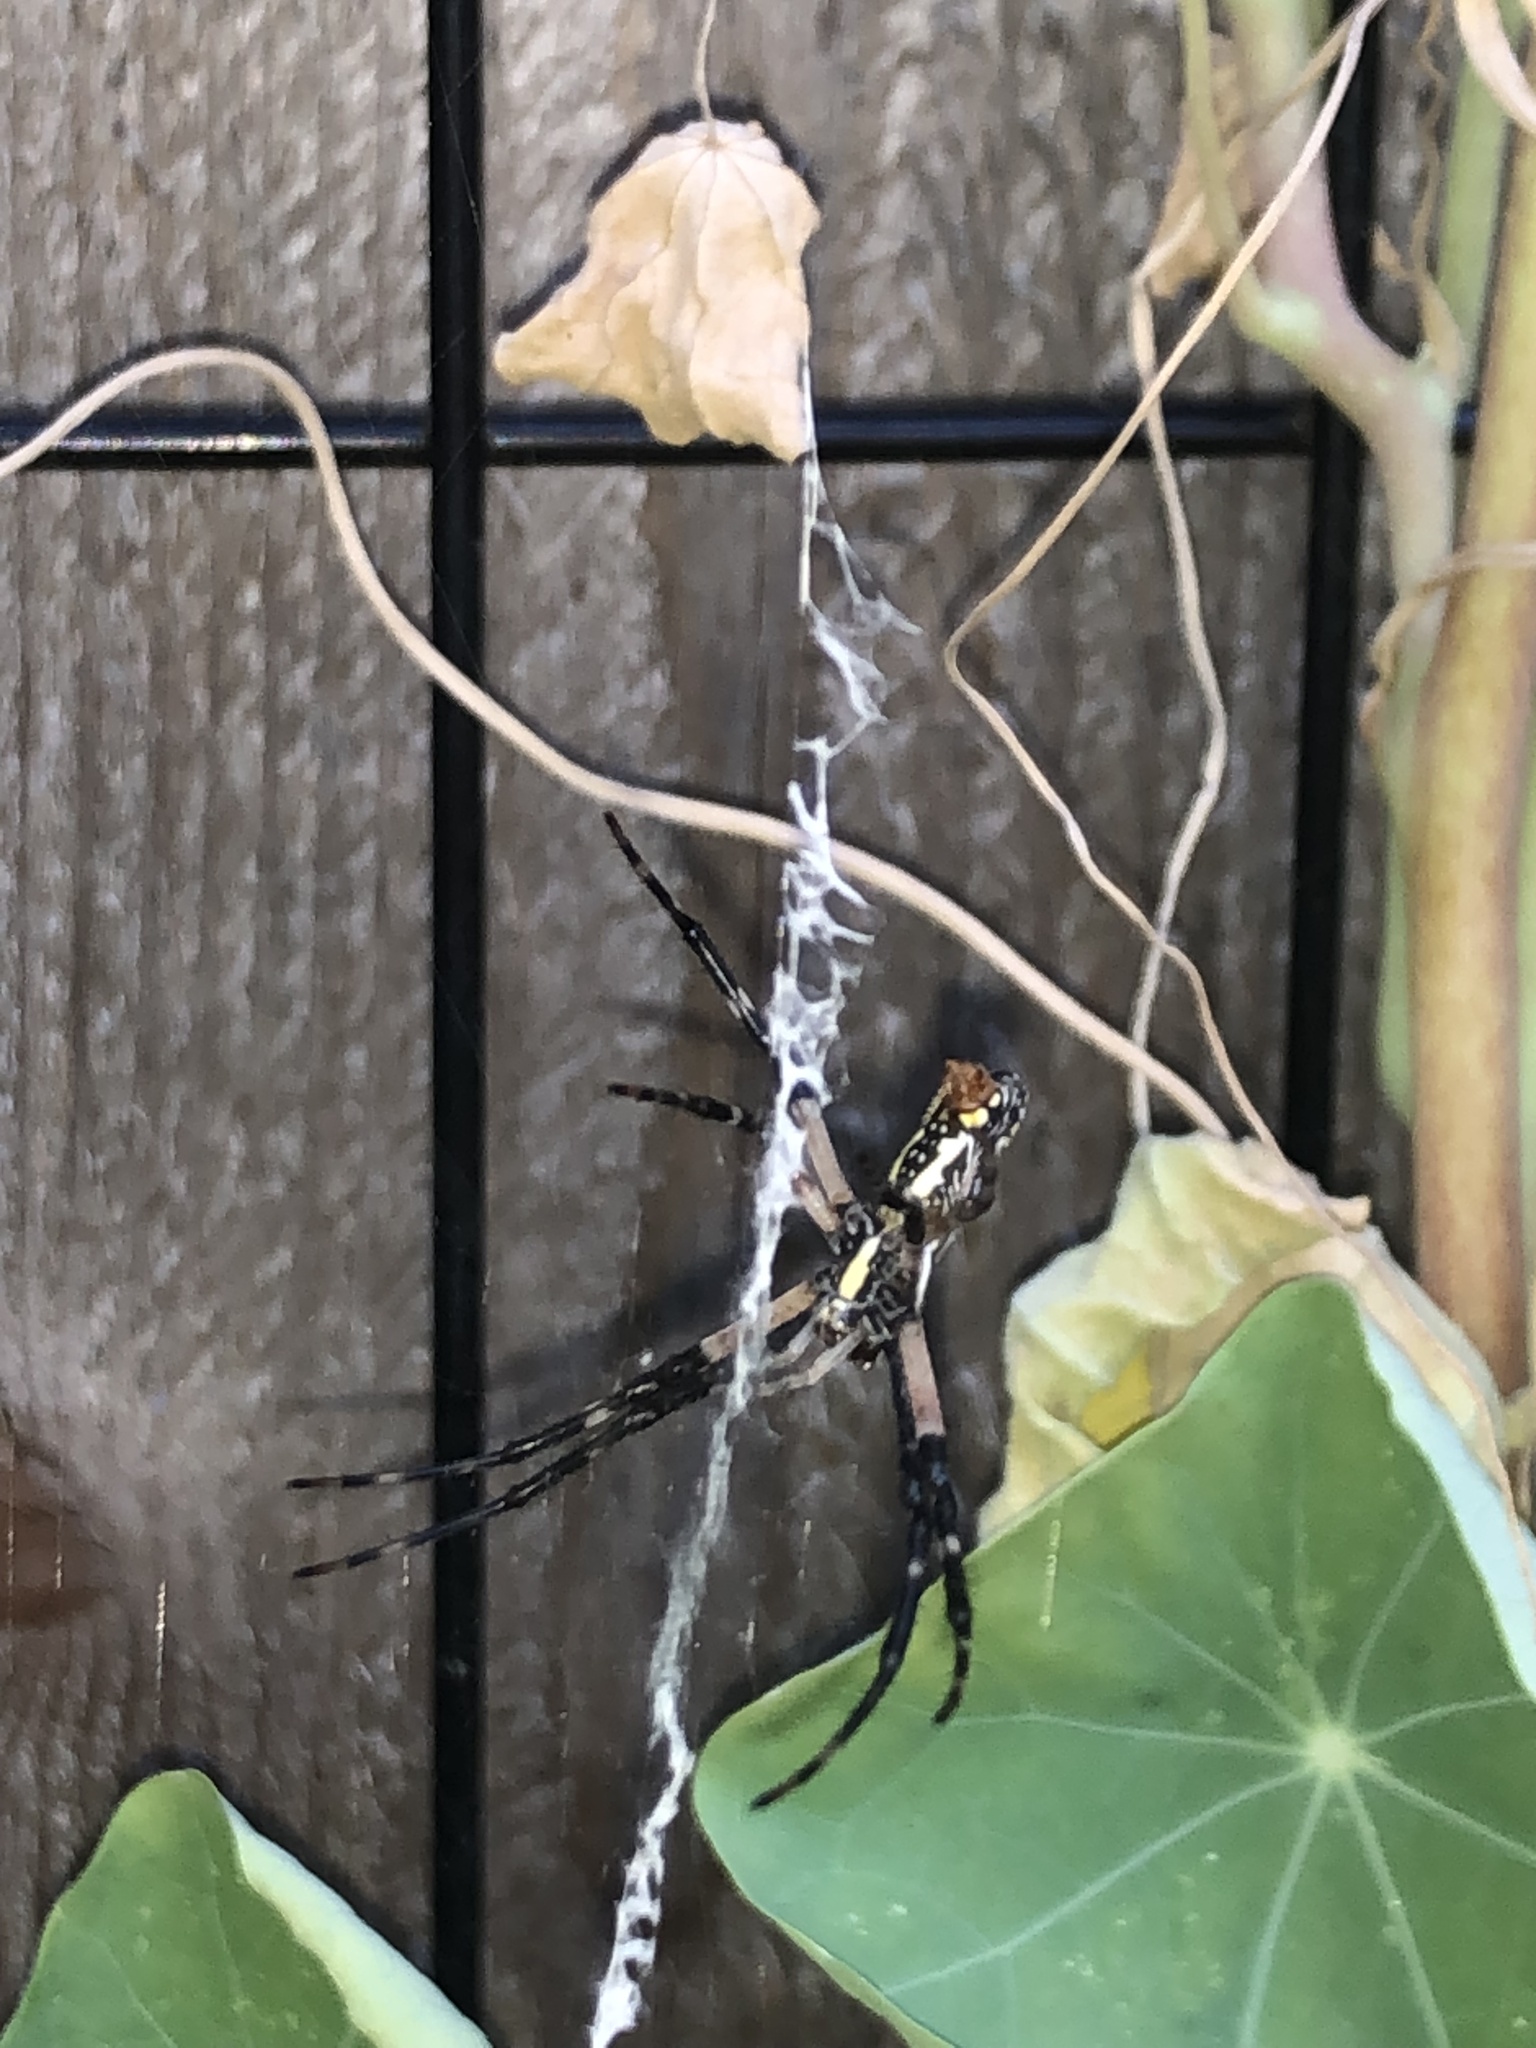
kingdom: Animalia
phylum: Arthropoda
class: Arachnida
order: Araneae
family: Araneidae
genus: Argiope
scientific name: Argiope aurantia
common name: Orb weavers
